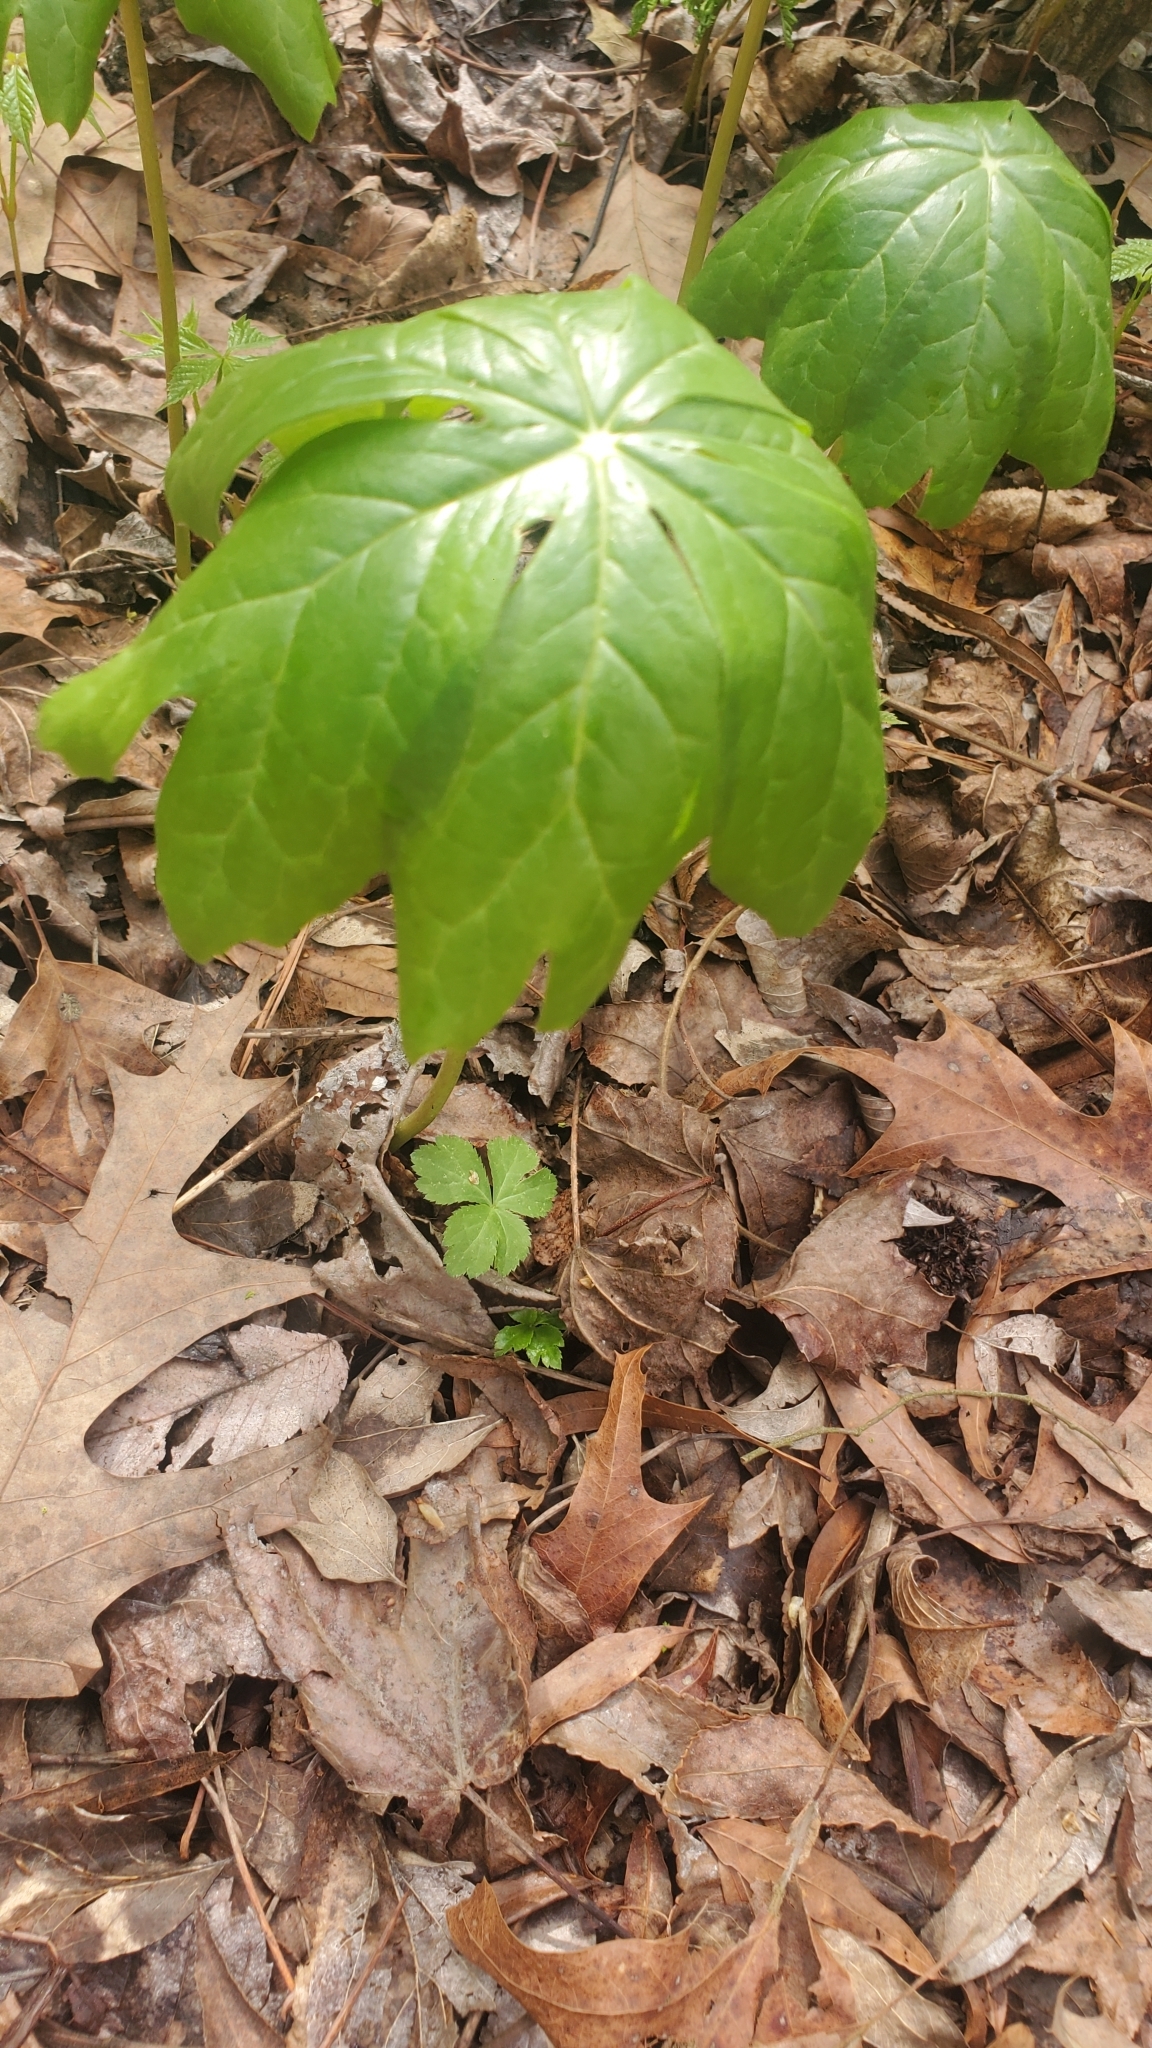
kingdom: Plantae
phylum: Tracheophyta
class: Magnoliopsida
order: Ranunculales
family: Berberidaceae
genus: Podophyllum
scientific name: Podophyllum peltatum
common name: Wild mandrake
